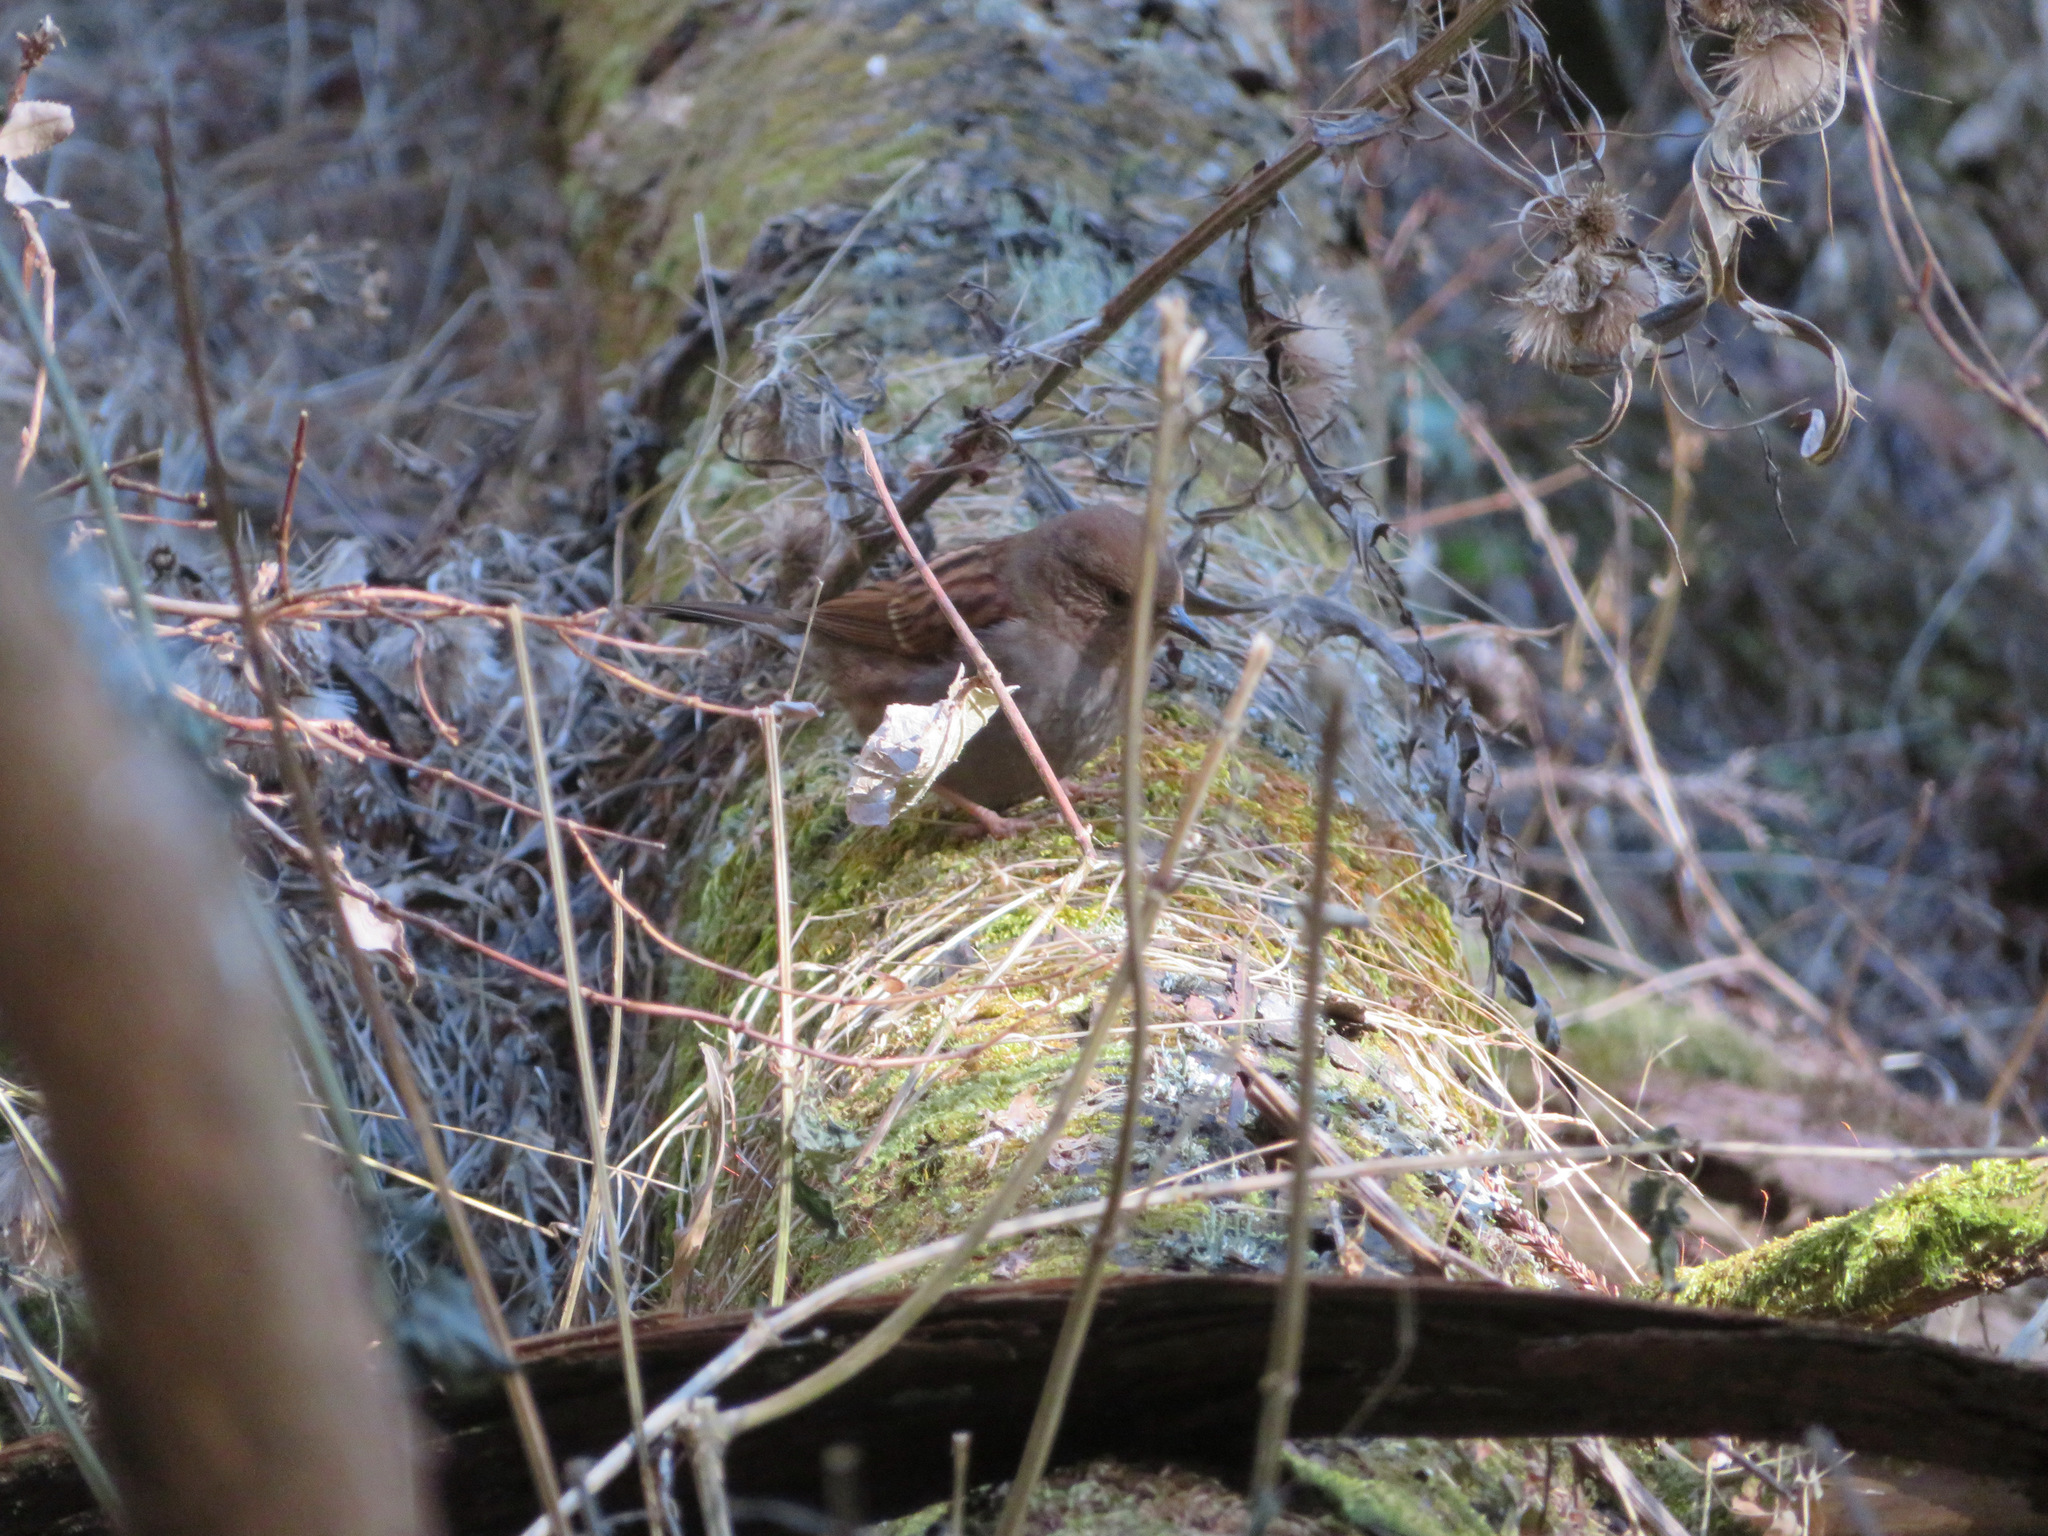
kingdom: Animalia
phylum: Chordata
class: Aves
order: Passeriformes
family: Prunellidae
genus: Prunella
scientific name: Prunella rubida
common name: Japanese accentor
